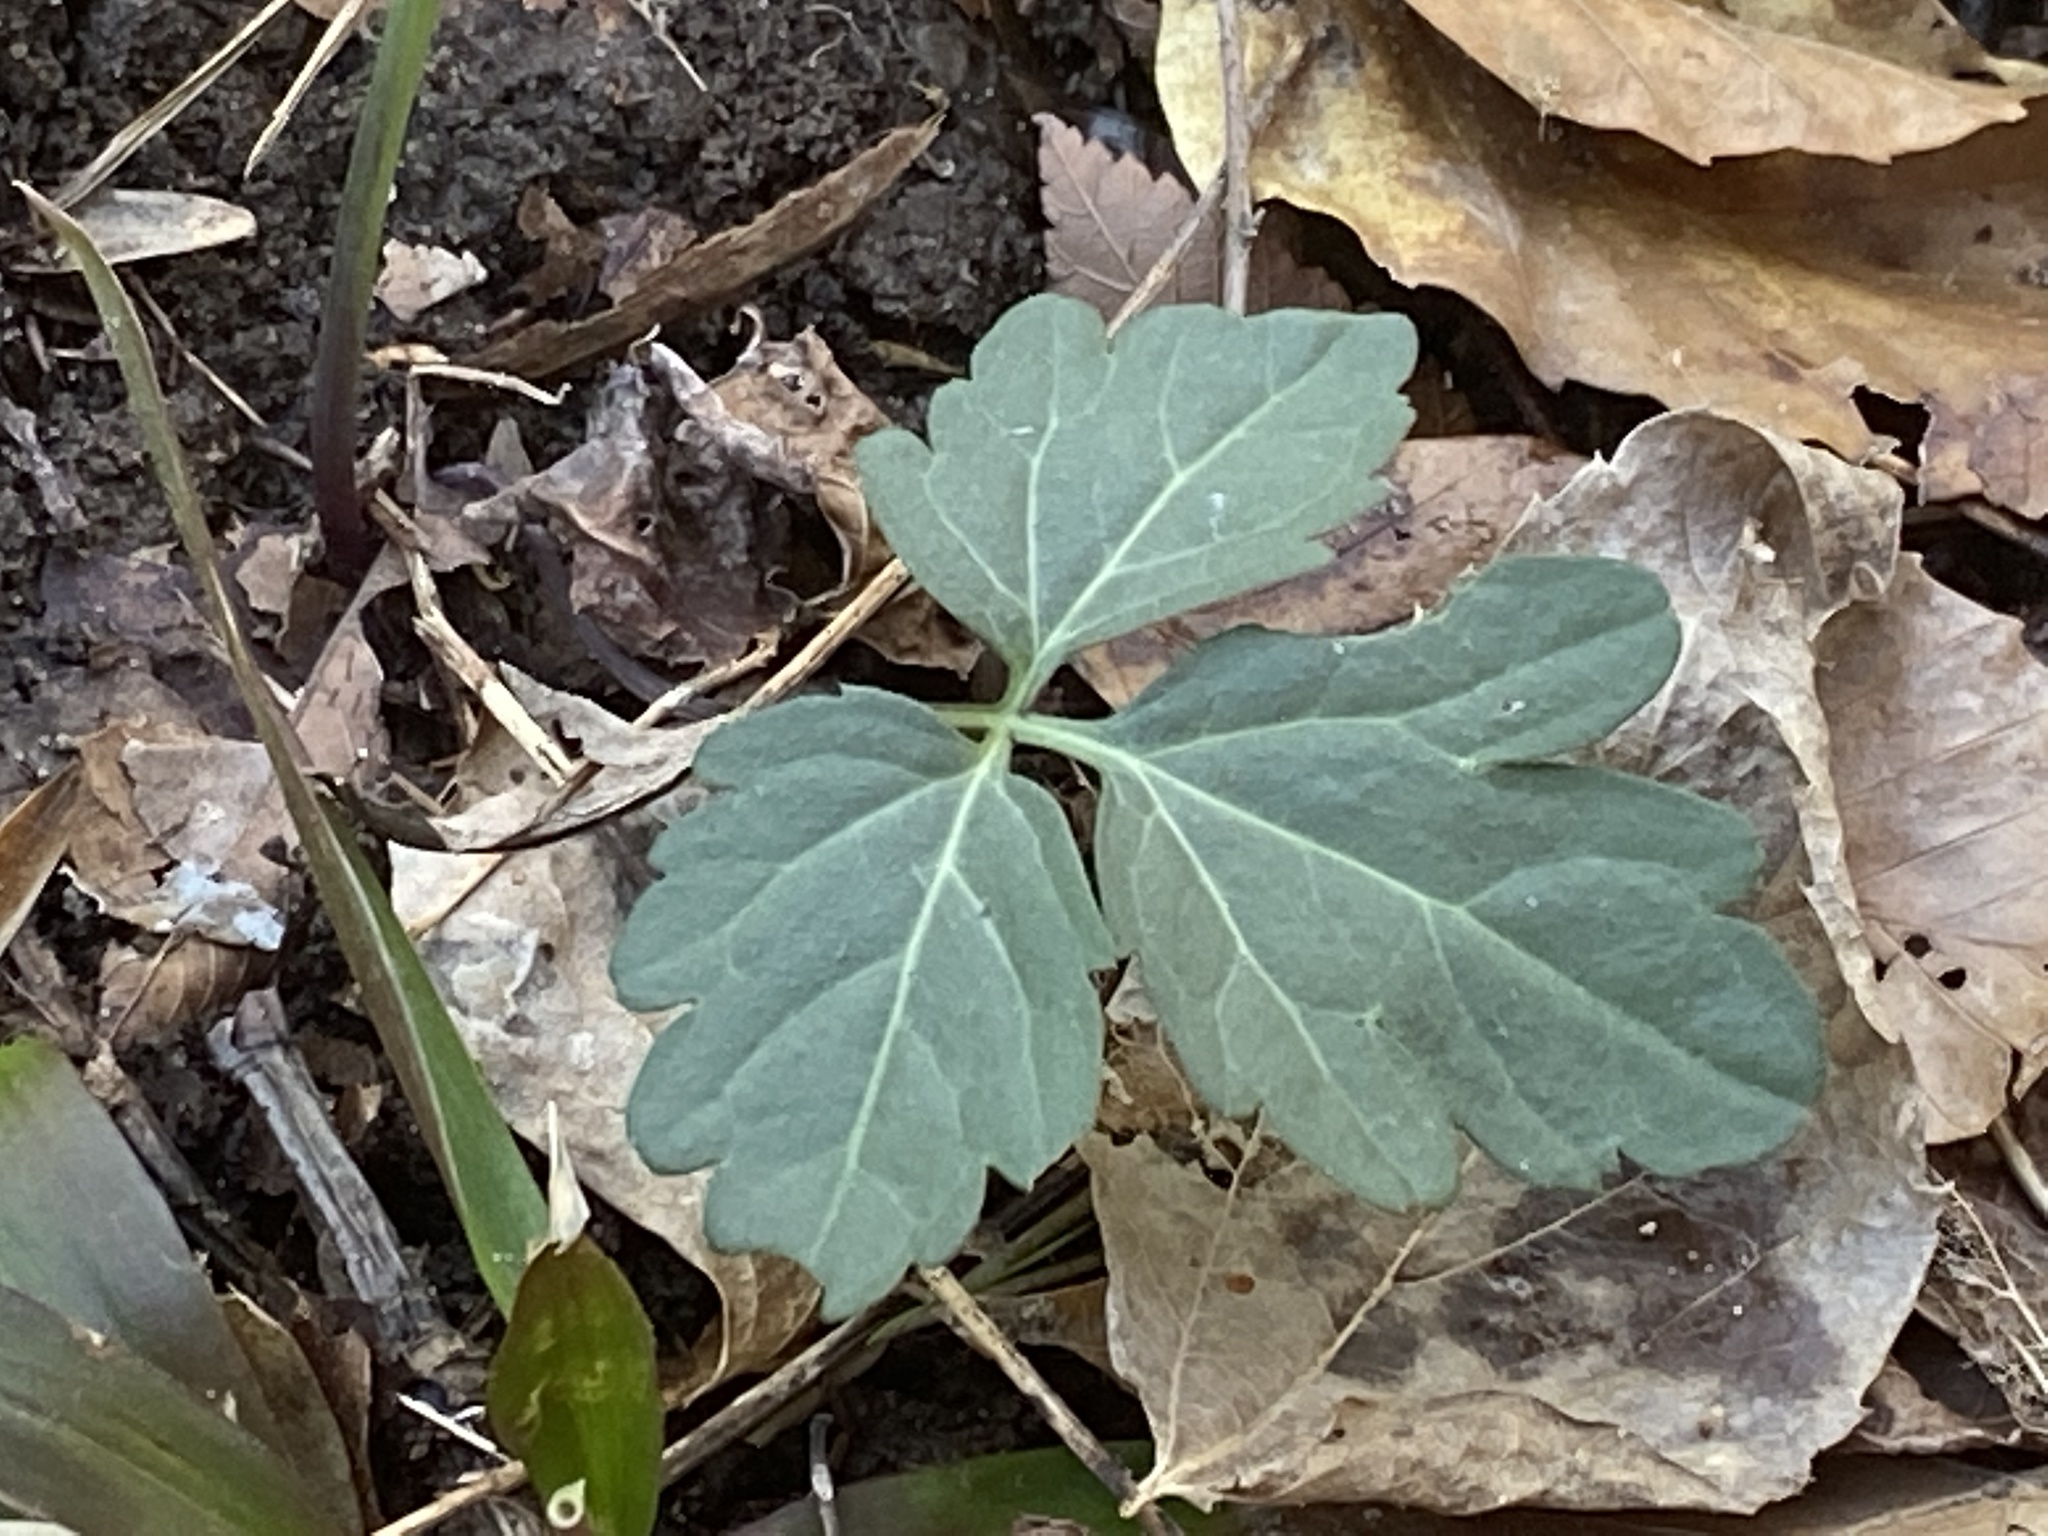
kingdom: Plantae
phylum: Tracheophyta
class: Magnoliopsida
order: Brassicales
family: Brassicaceae
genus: Cardamine
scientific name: Cardamine angustata
